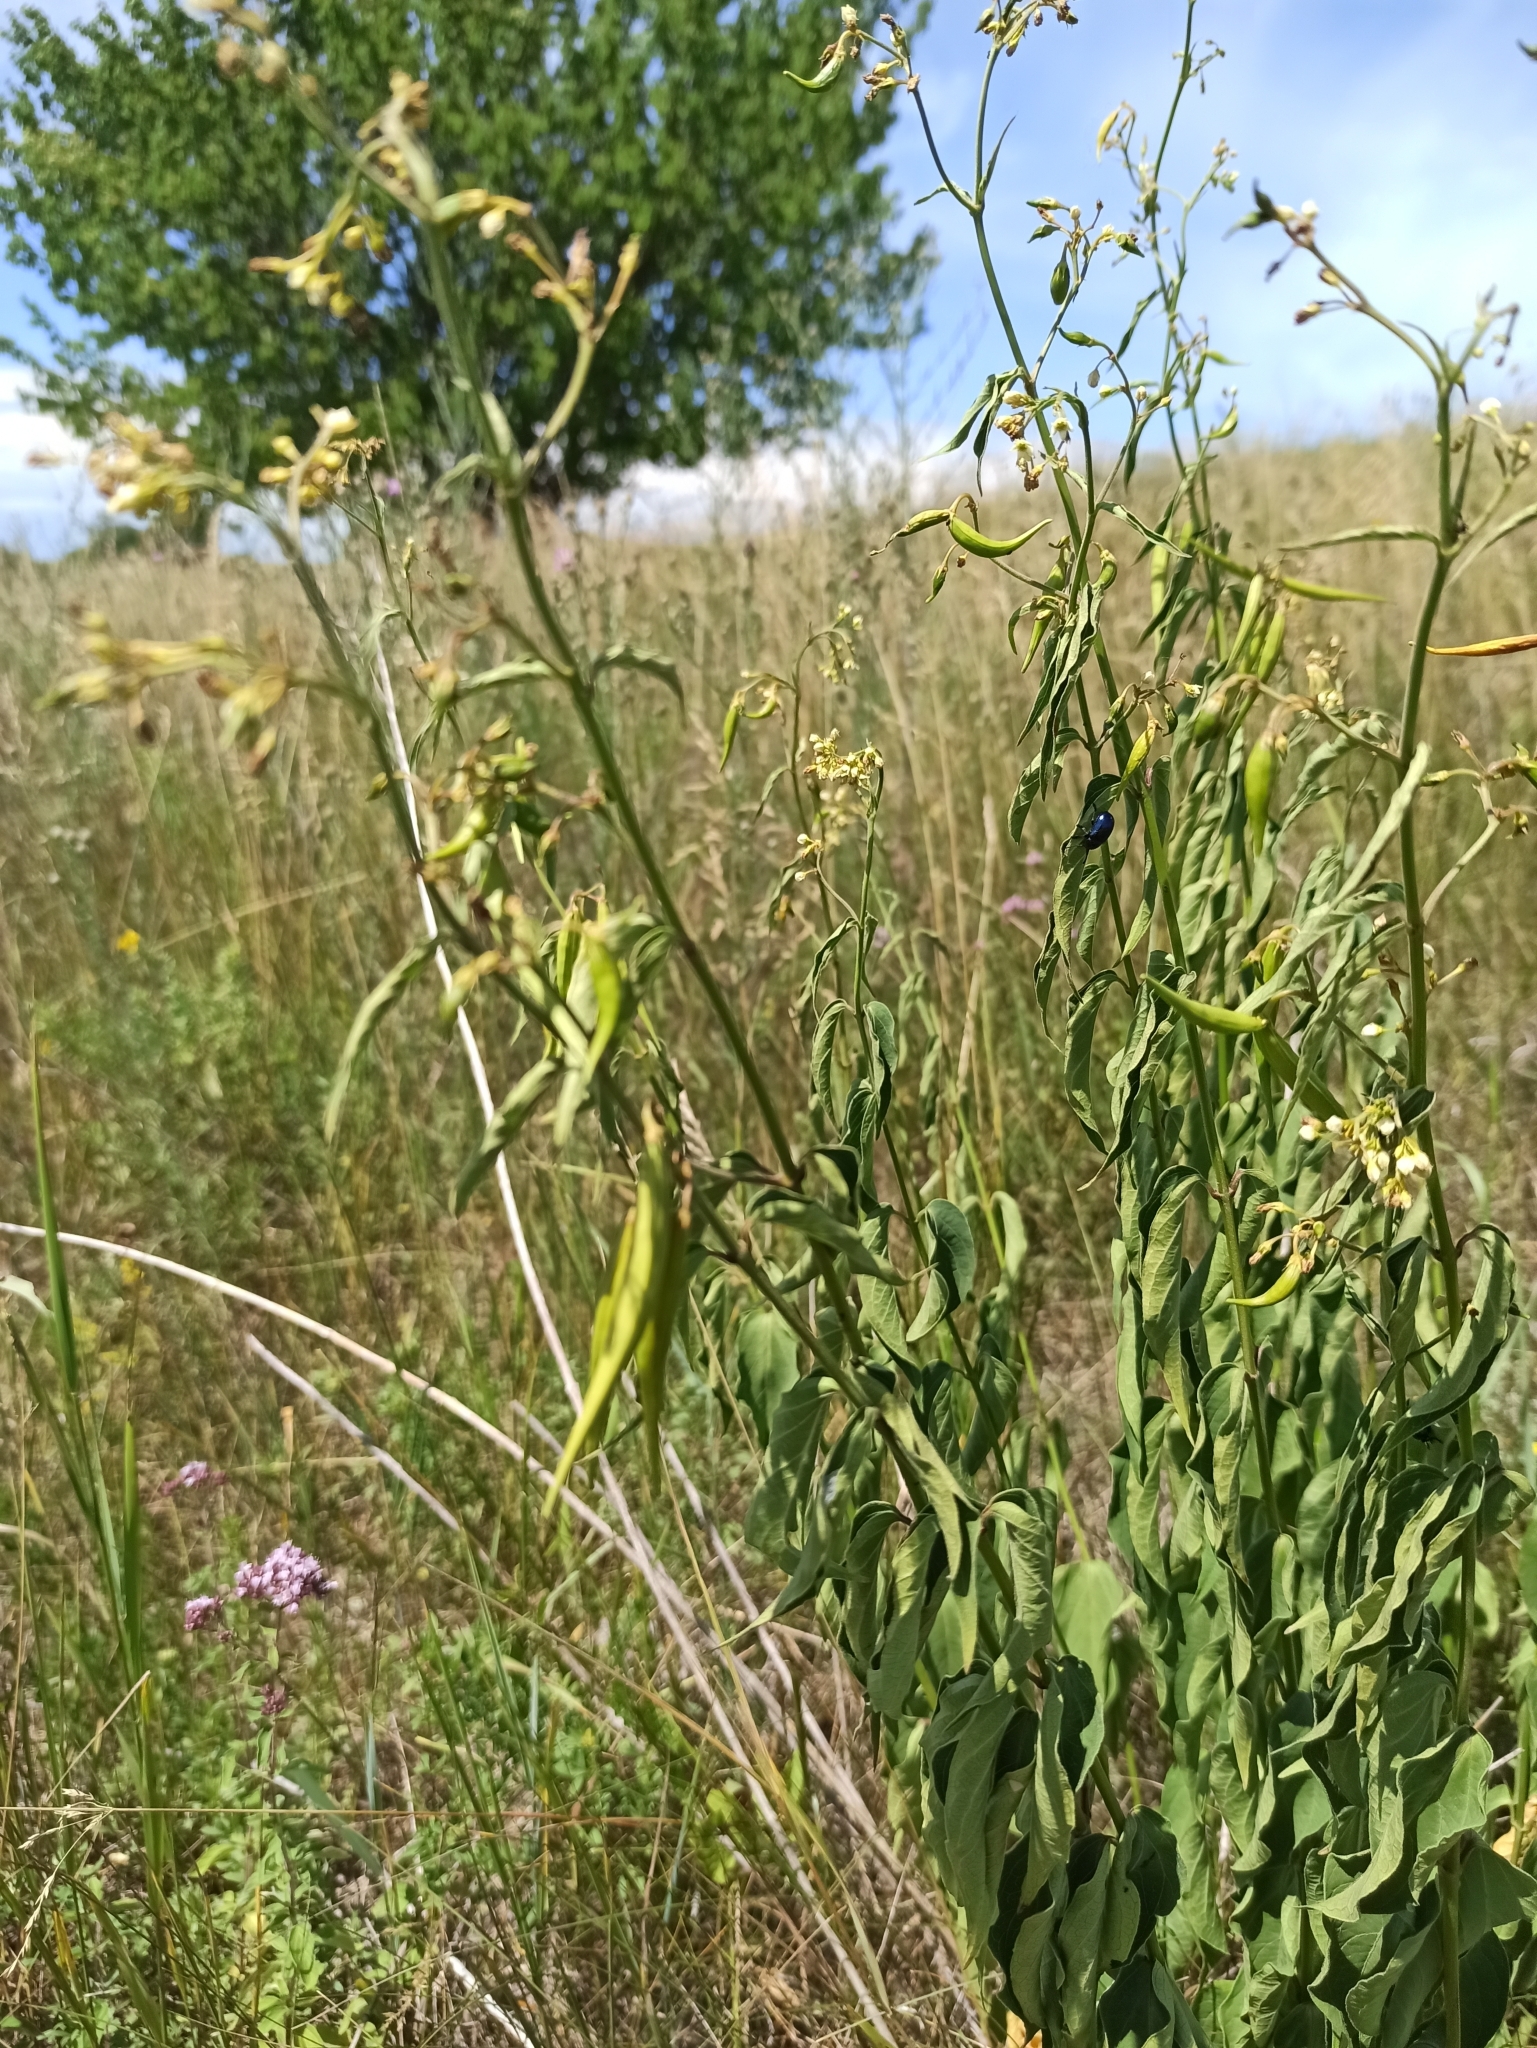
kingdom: Plantae
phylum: Tracheophyta
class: Magnoliopsida
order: Gentianales
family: Apocynaceae
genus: Vincetoxicum
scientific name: Vincetoxicum hirundinaria
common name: White swallowwort
